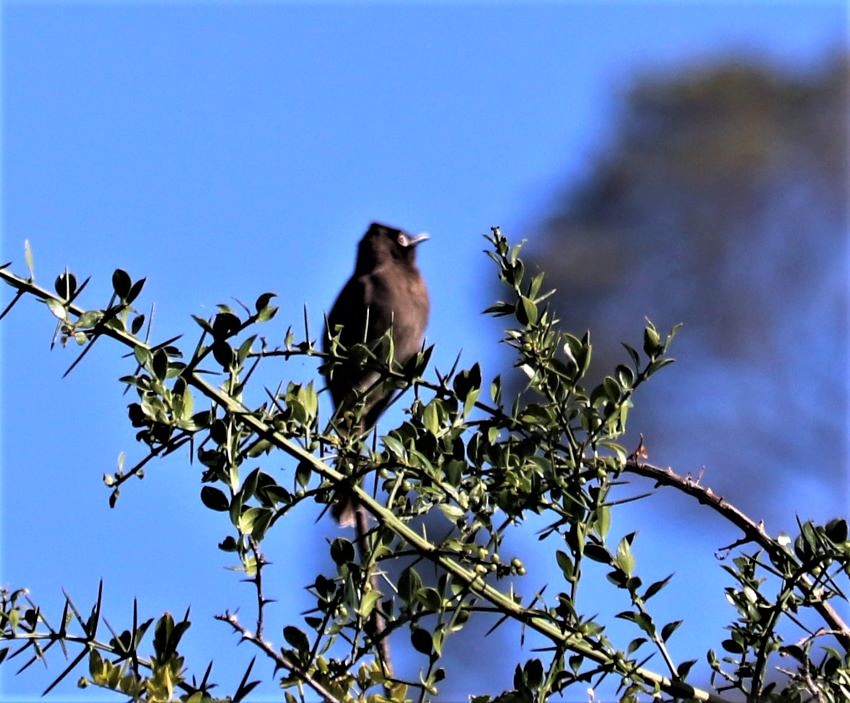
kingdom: Animalia
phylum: Chordata
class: Aves
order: Passeriformes
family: Pycnonotidae
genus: Pycnonotus
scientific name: Pycnonotus capensis
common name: Cape bulbul
